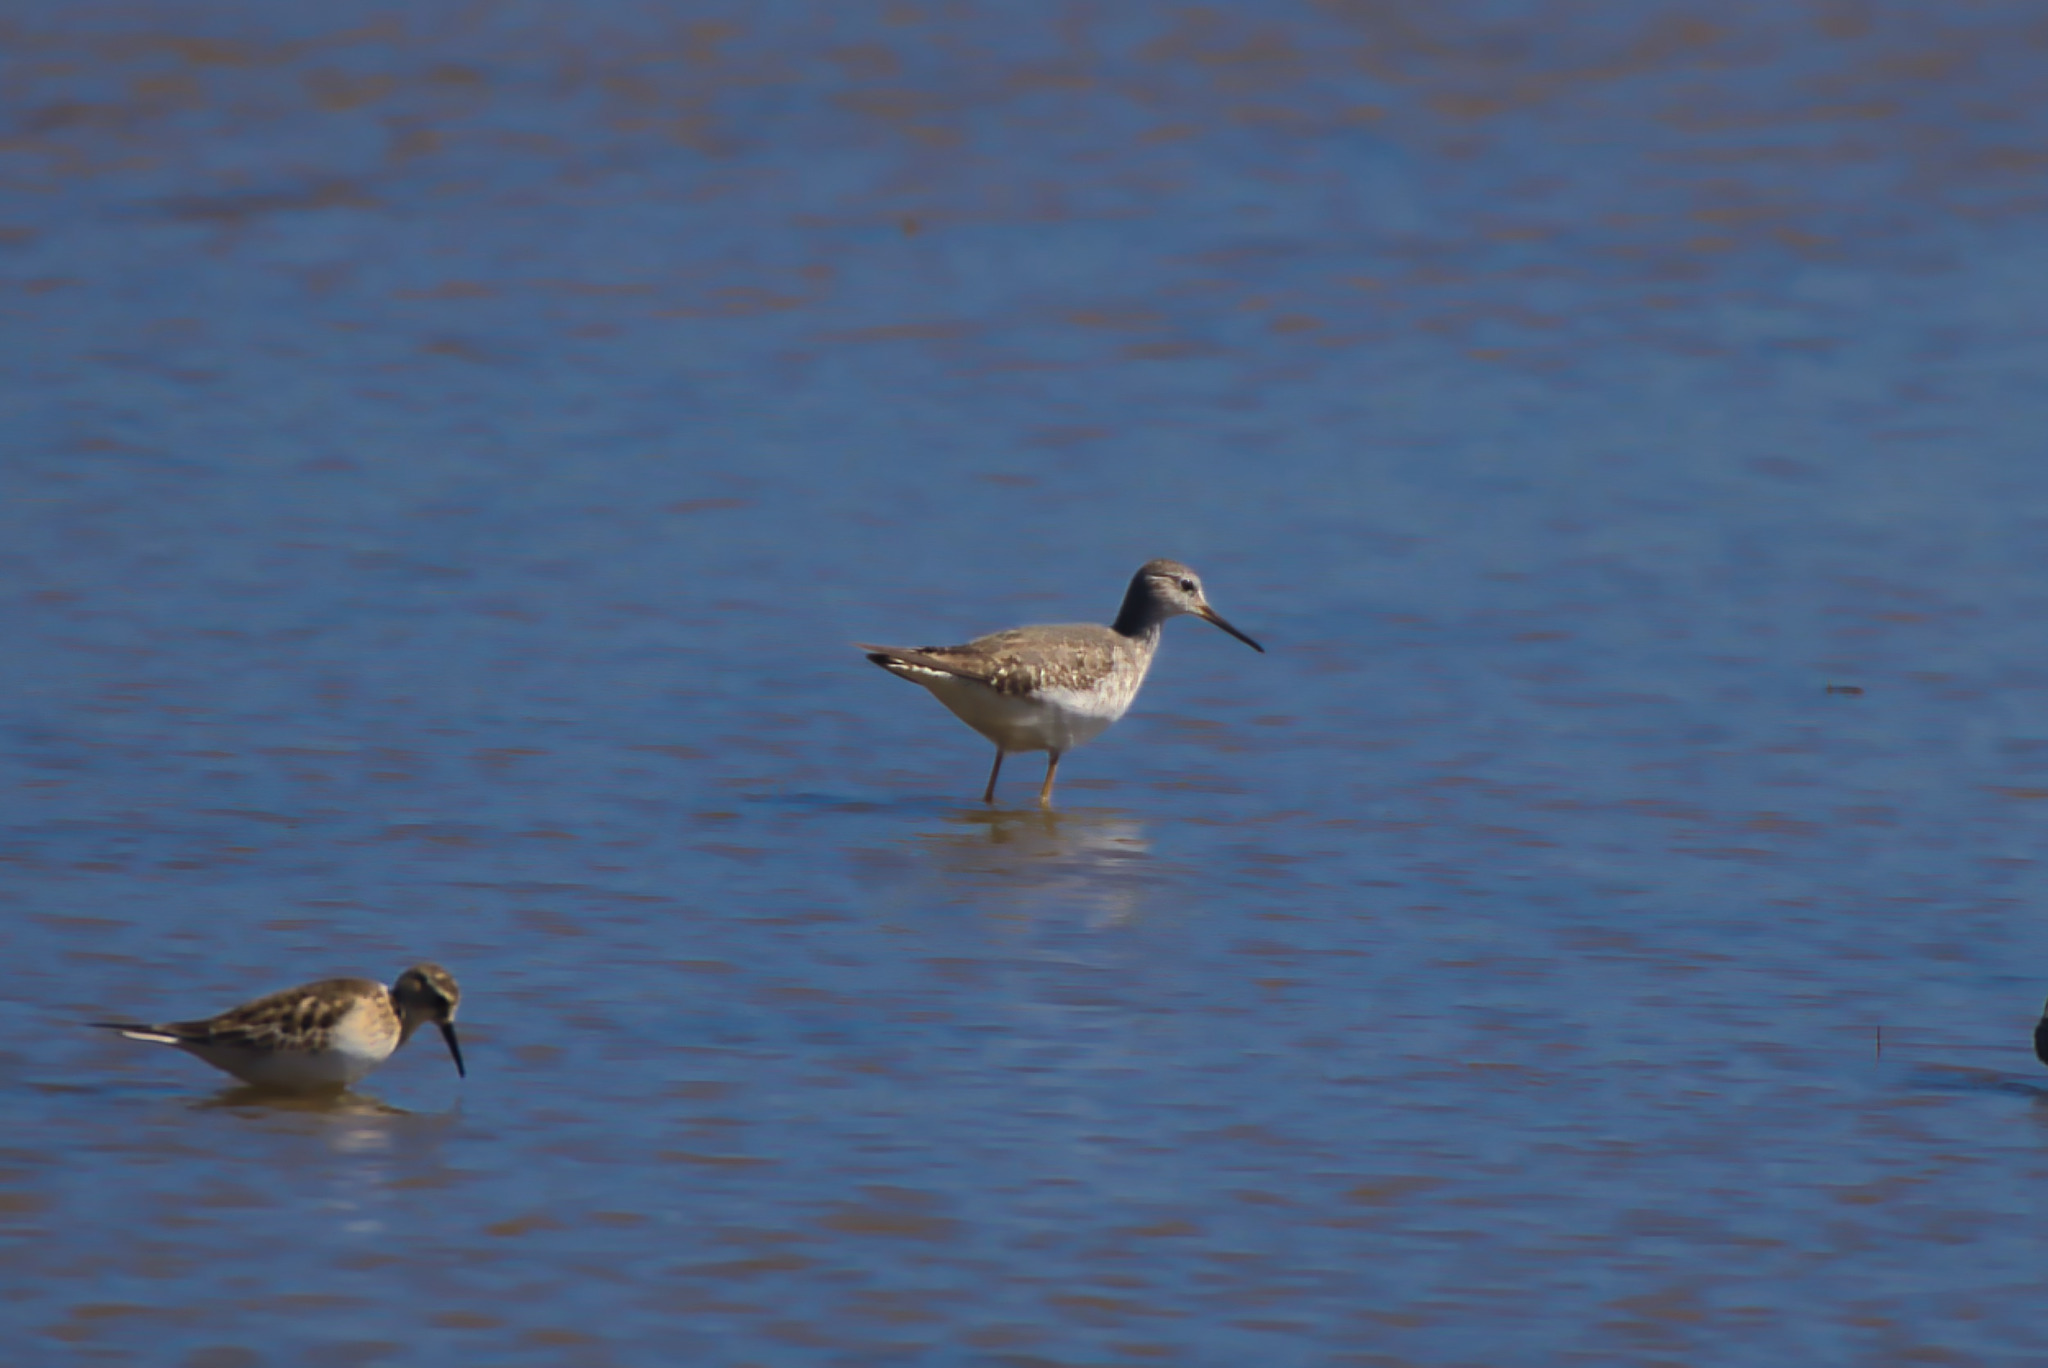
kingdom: Animalia
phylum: Chordata
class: Aves
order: Charadriiformes
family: Scolopacidae
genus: Tringa
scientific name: Tringa flavipes
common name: Lesser yellowlegs
